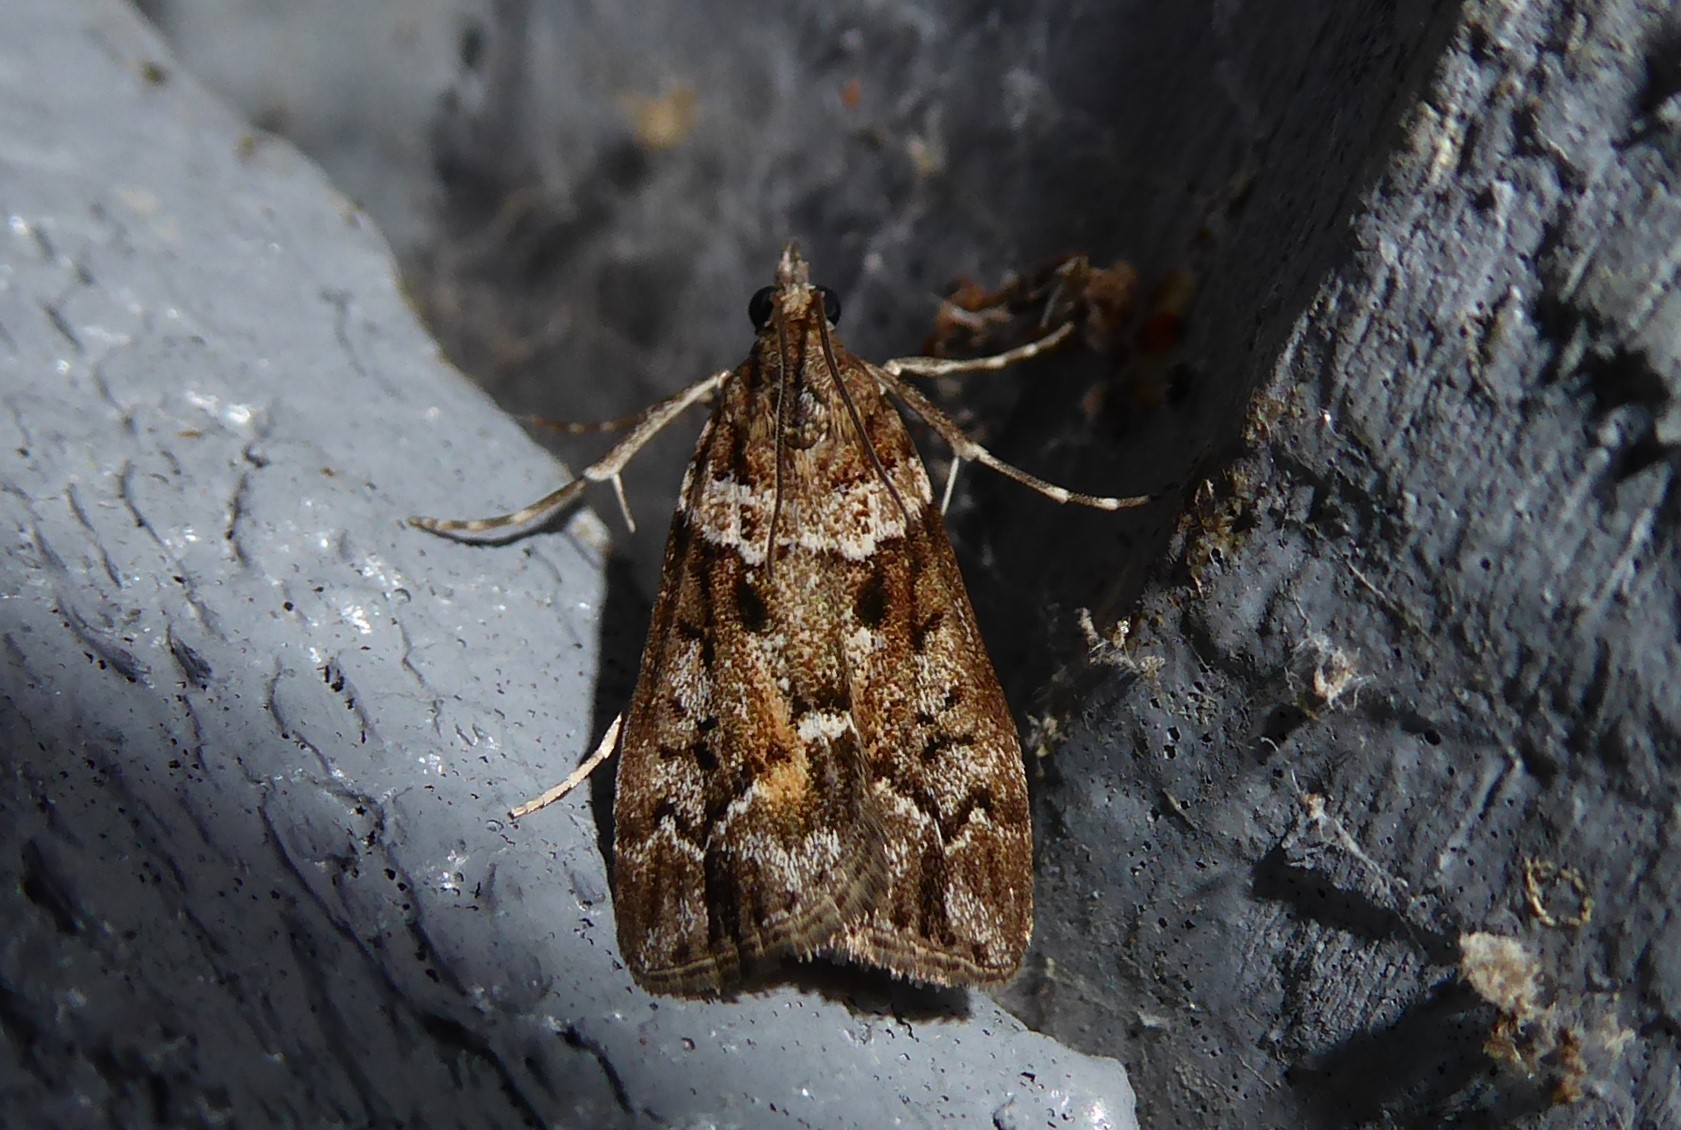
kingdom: Animalia
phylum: Arthropoda
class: Insecta
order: Lepidoptera
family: Crambidae
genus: Eudonia
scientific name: Eudonia submarginalis
